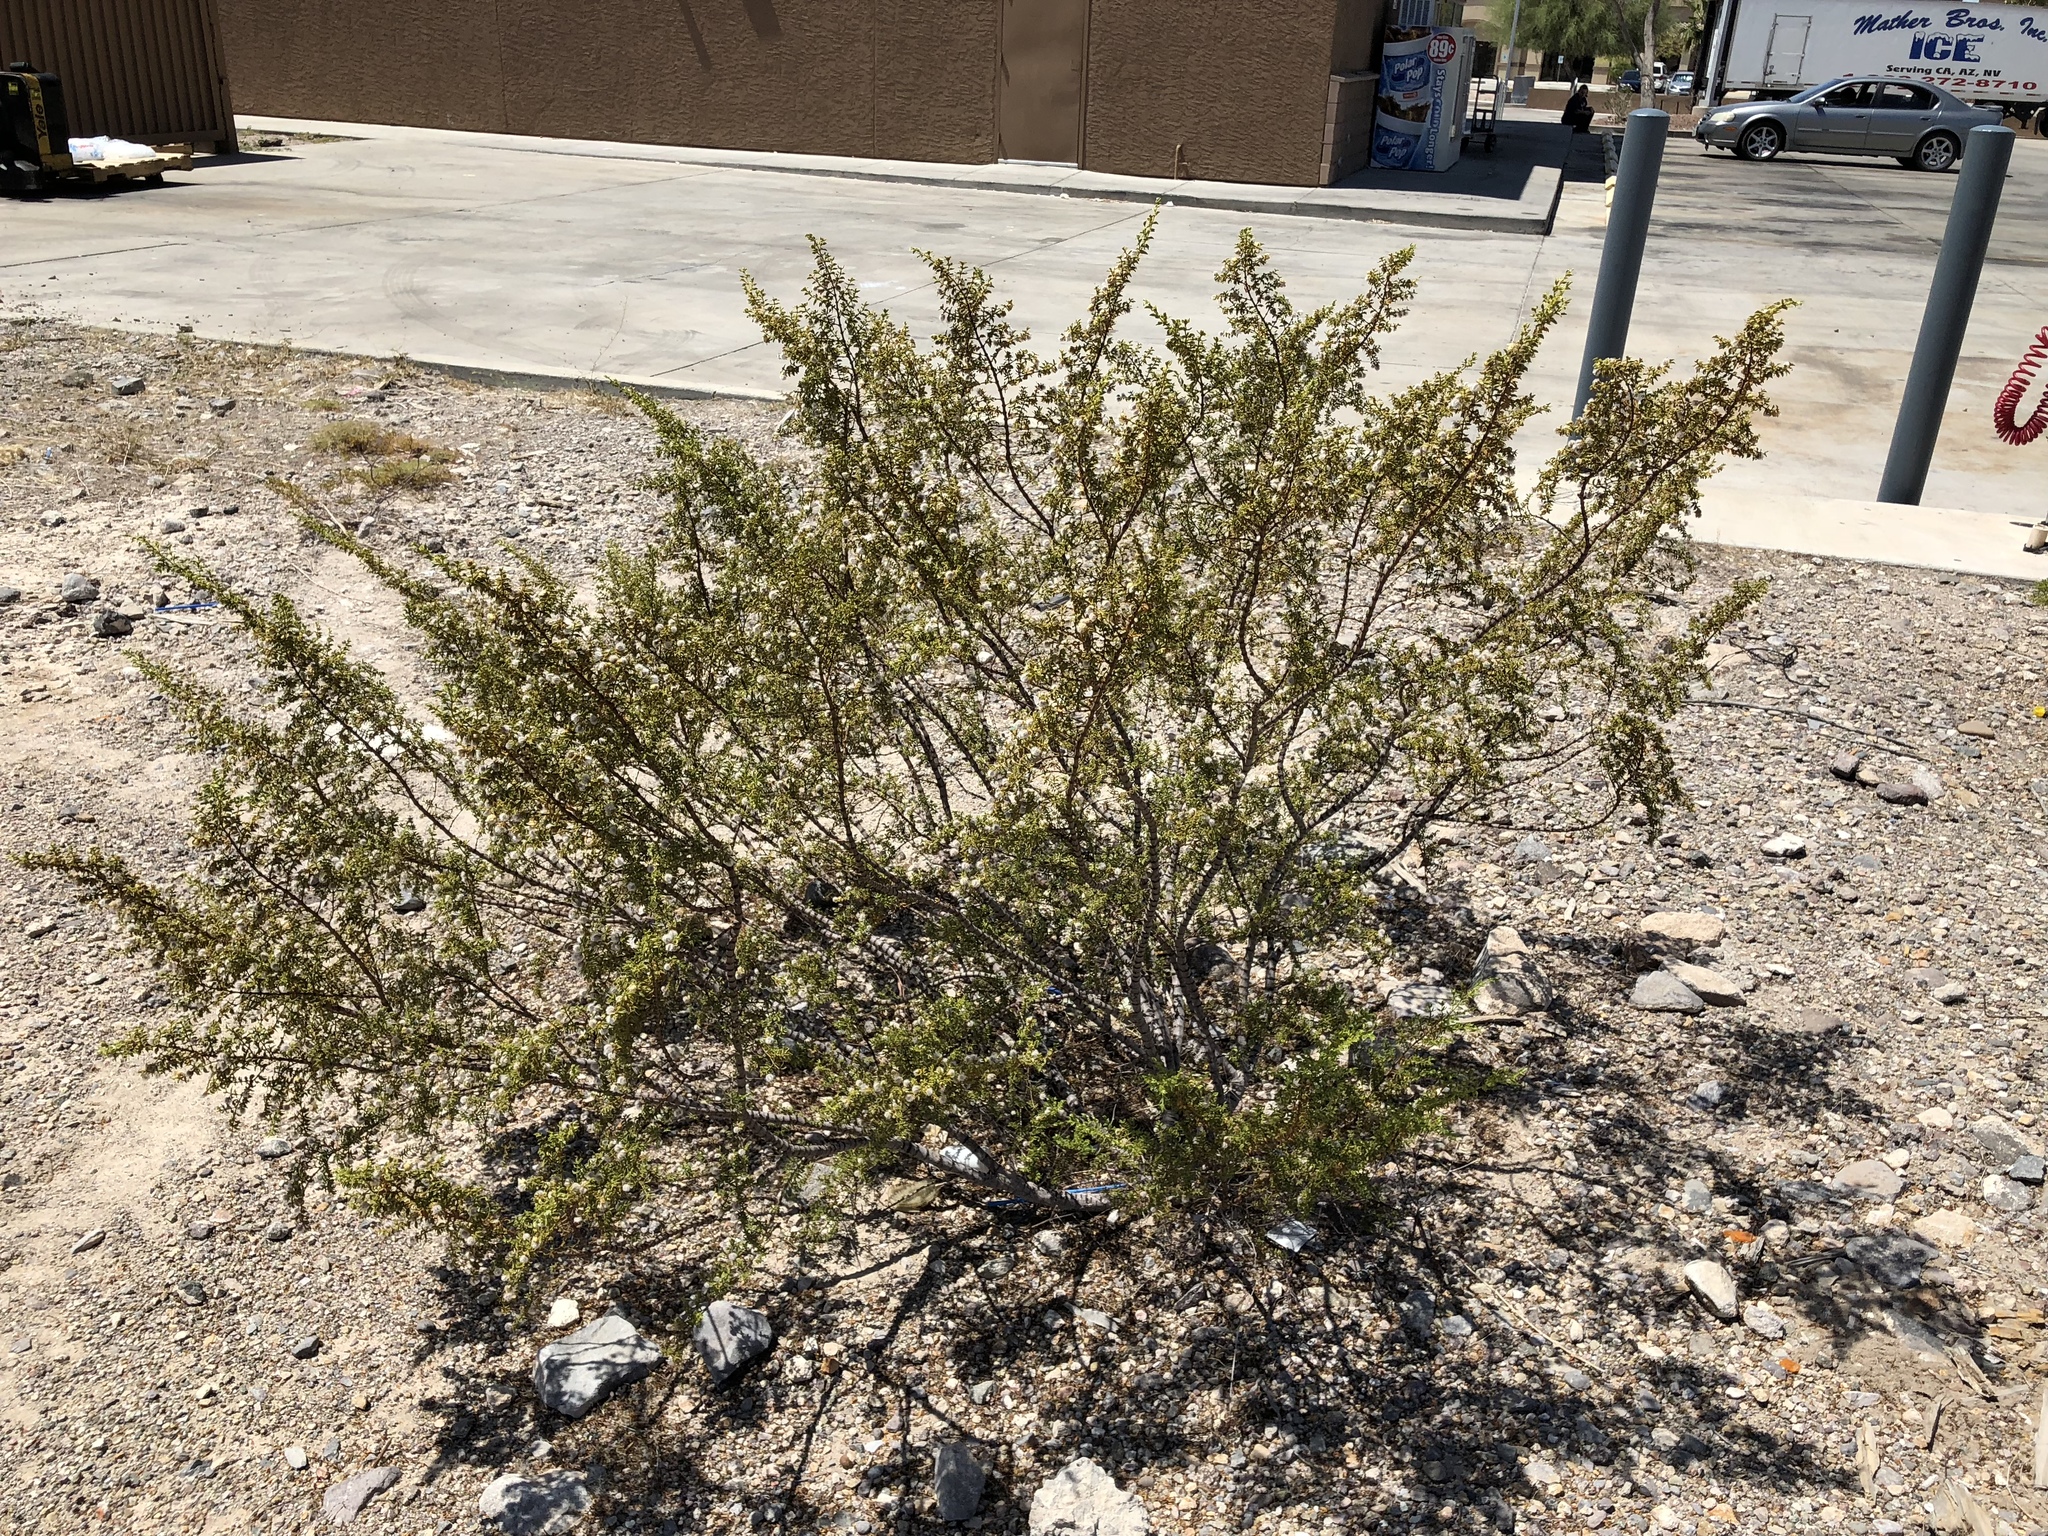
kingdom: Plantae
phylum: Tracheophyta
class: Magnoliopsida
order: Zygophyllales
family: Zygophyllaceae
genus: Larrea
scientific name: Larrea tridentata
